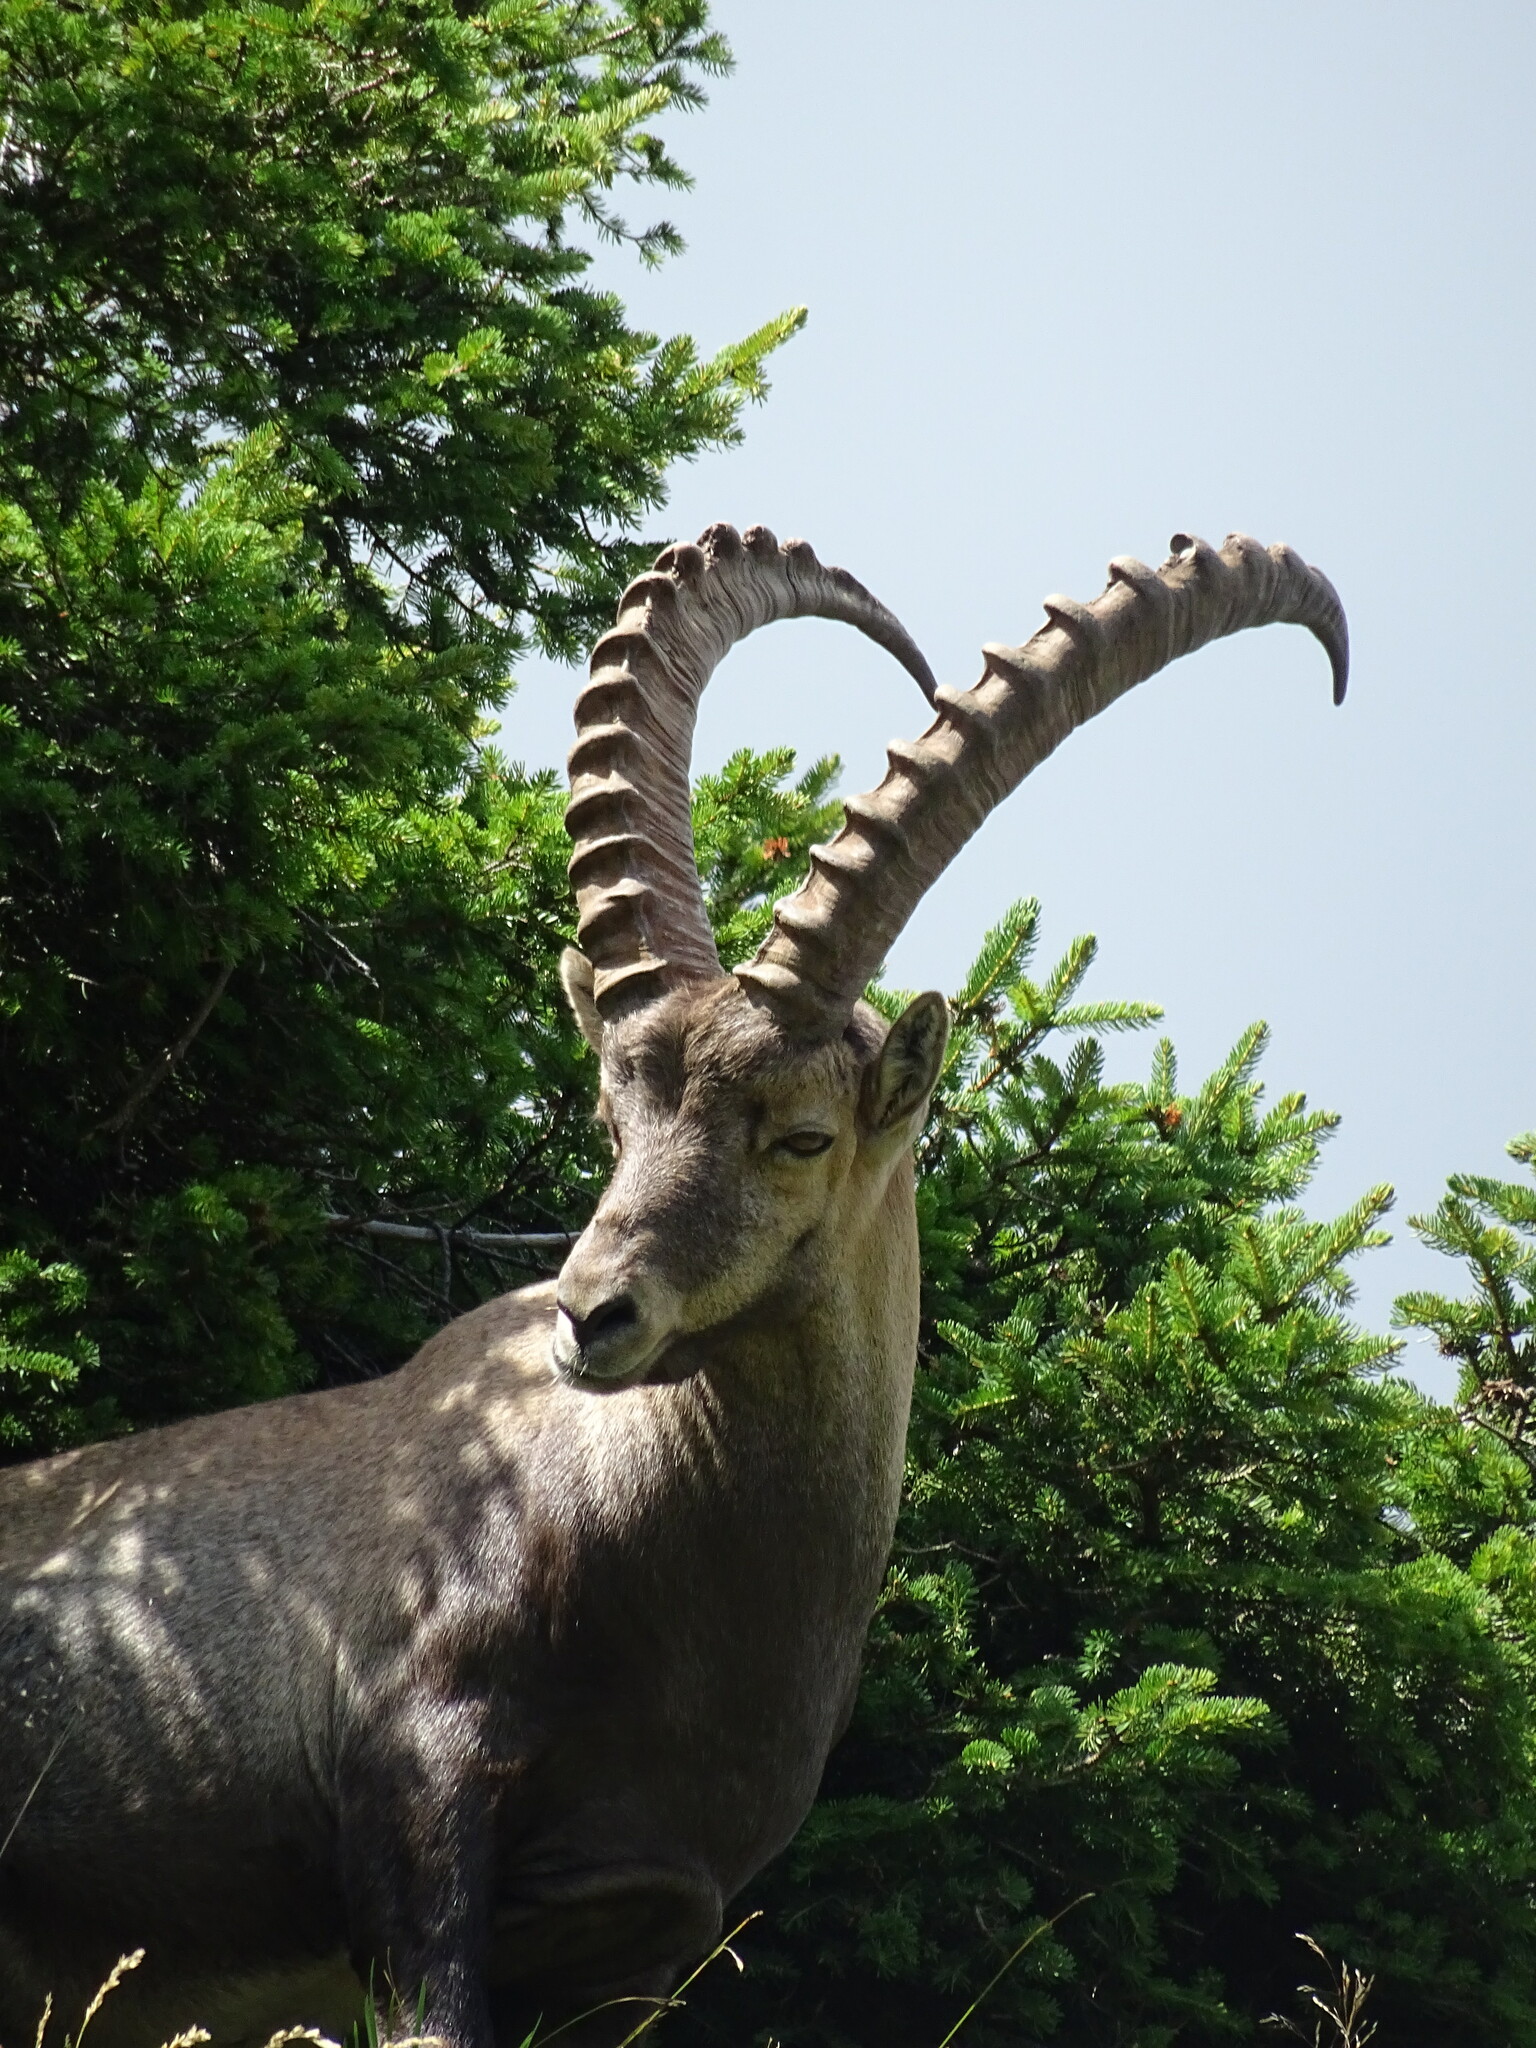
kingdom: Animalia
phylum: Chordata
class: Mammalia
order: Artiodactyla
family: Bovidae
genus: Capra
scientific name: Capra ibex
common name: Alpine ibex
